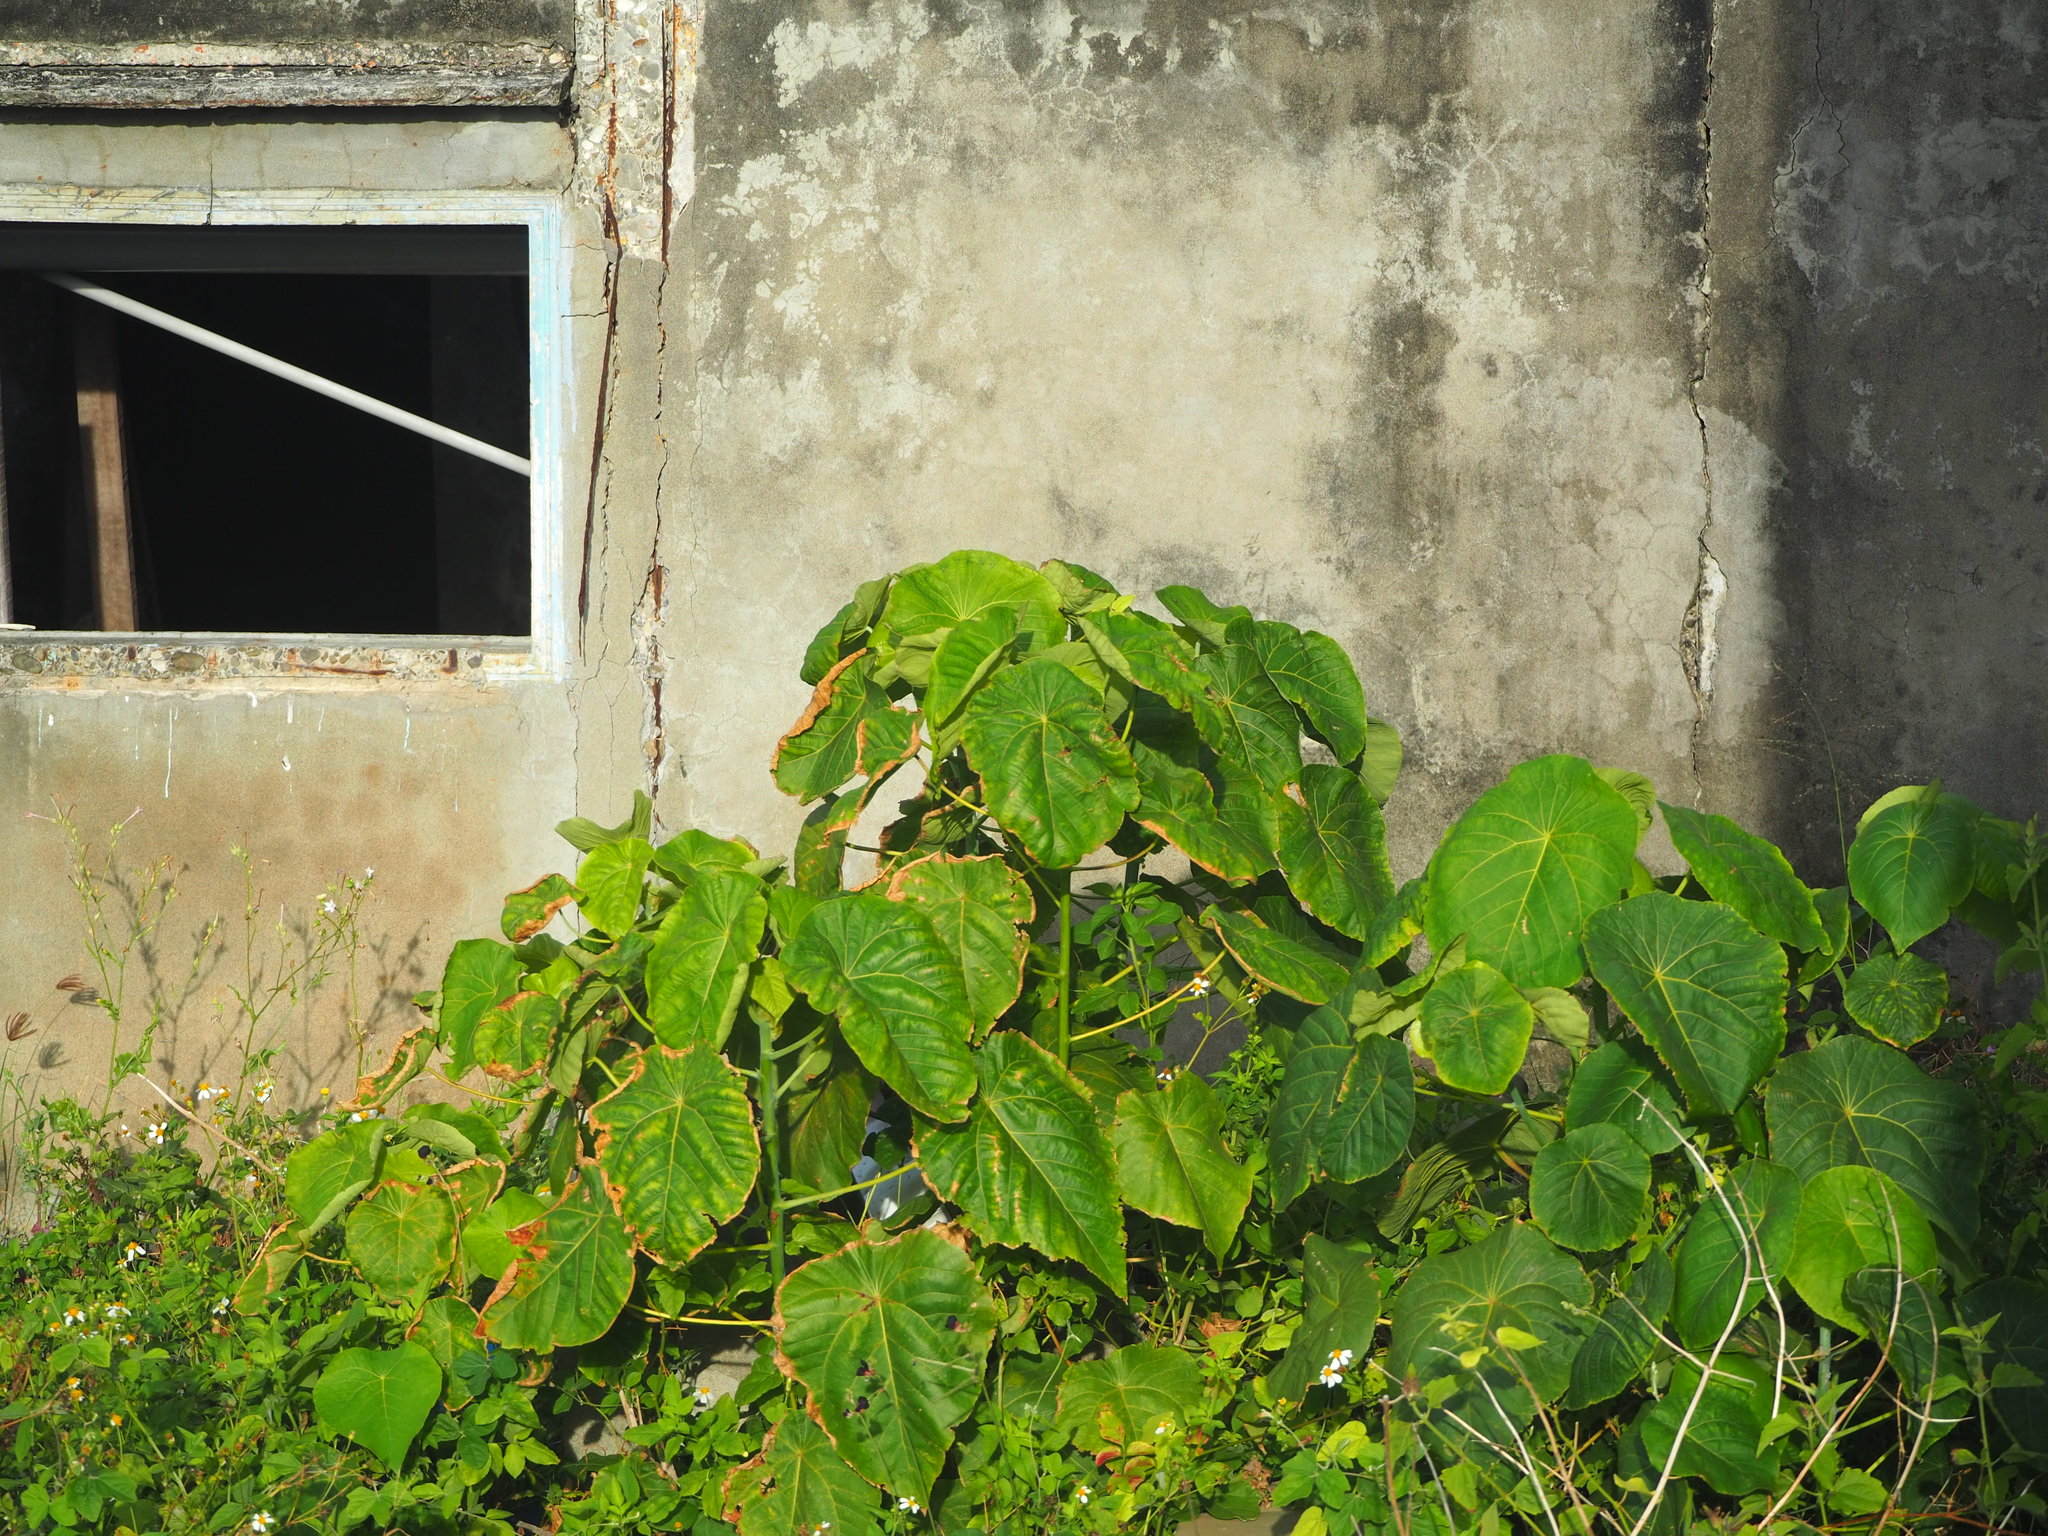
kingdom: Plantae
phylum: Tracheophyta
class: Magnoliopsida
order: Malpighiales
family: Euphorbiaceae
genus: Macaranga
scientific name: Macaranga tanarius
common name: Parasol leaf tree
